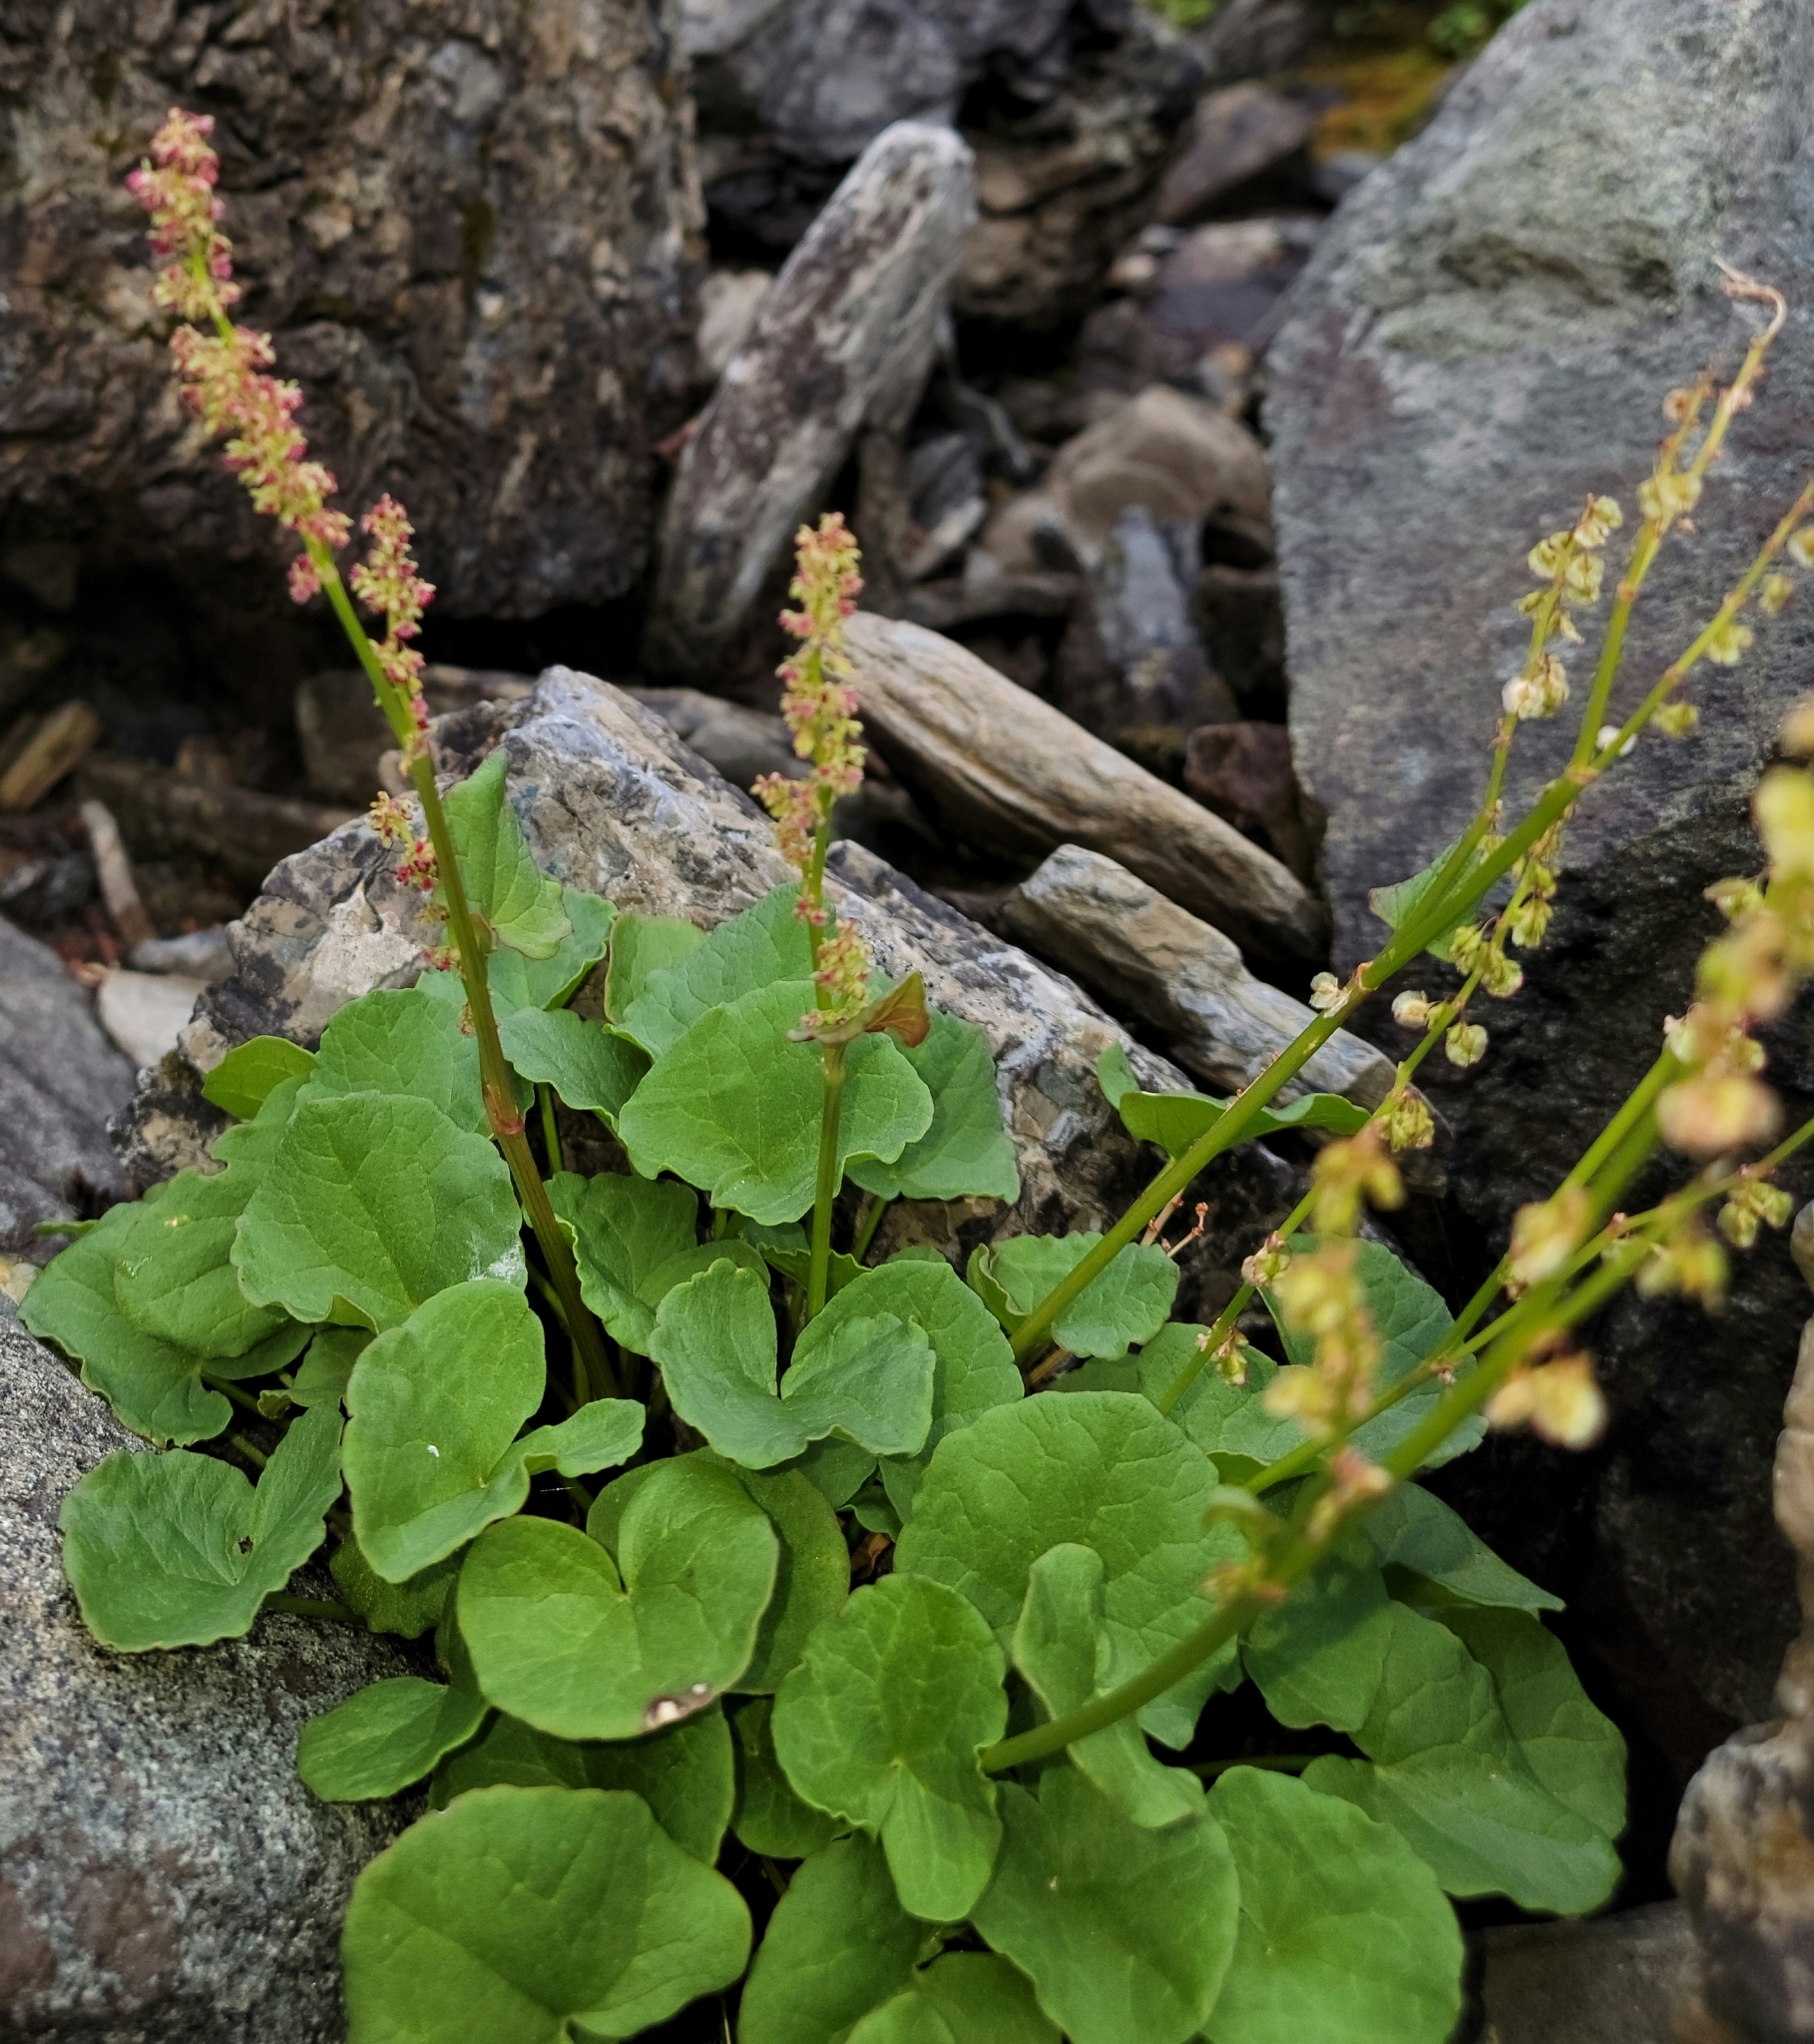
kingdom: Plantae
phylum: Tracheophyta
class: Magnoliopsida
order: Caryophyllales
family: Polygonaceae
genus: Oxyria
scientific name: Oxyria digyna
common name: Alpine mountain-sorrel
